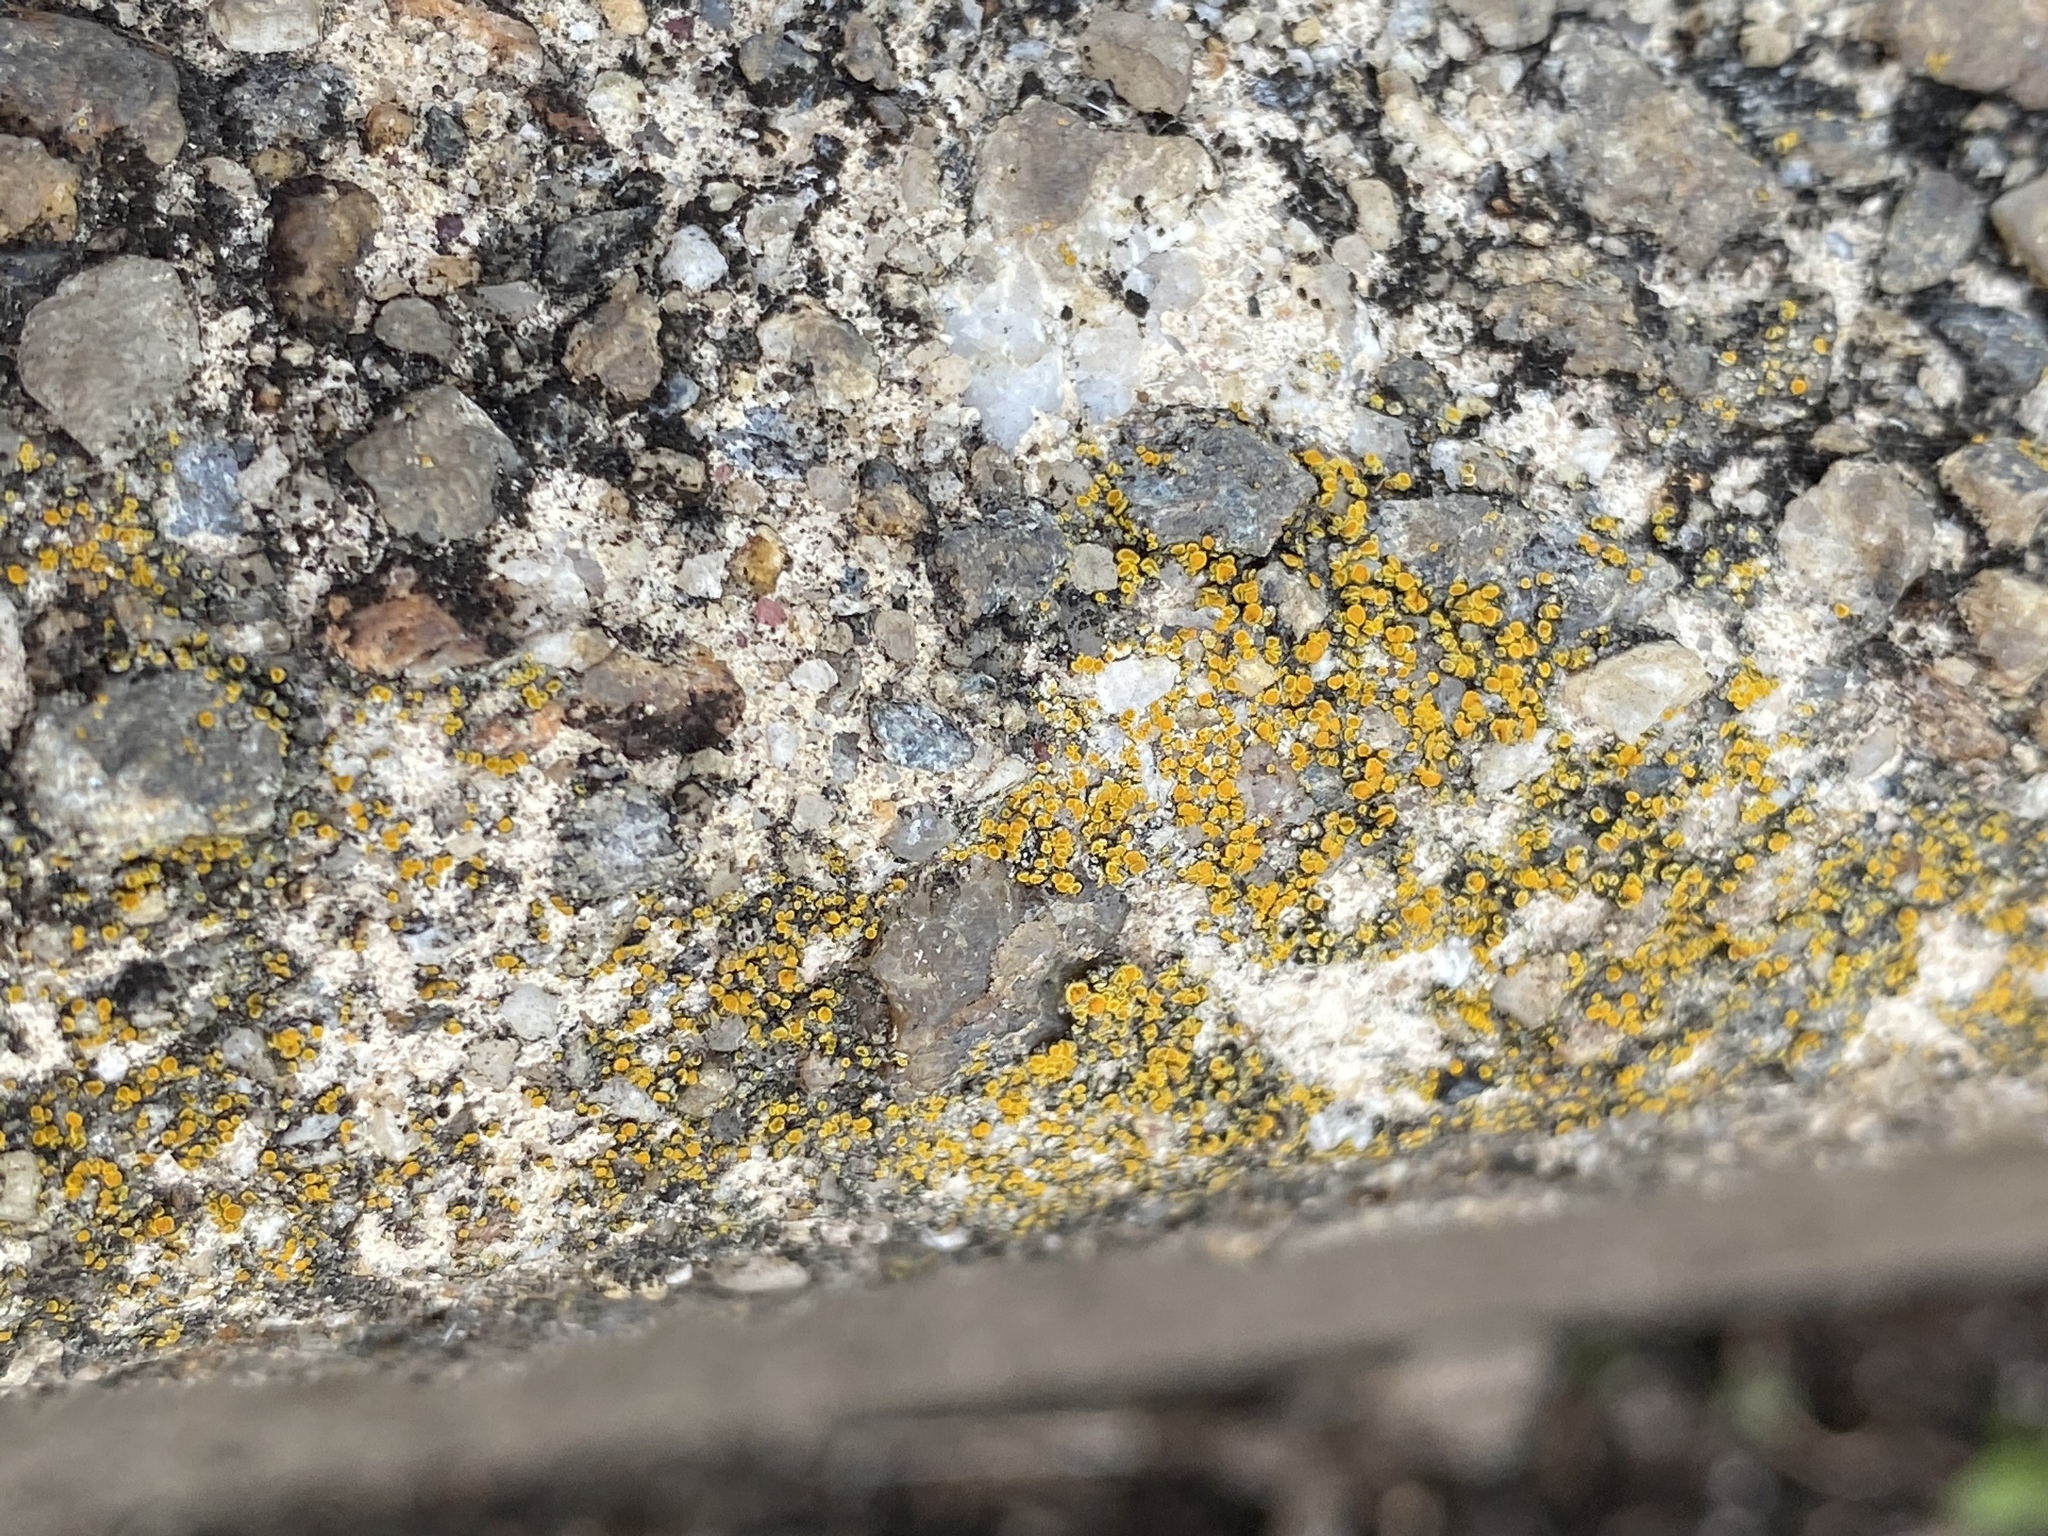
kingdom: Fungi
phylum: Ascomycota
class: Candelariomycetes
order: Candelariales
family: Candelariaceae
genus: Candelariella
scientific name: Candelariella vitellina
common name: Common goldspeck
